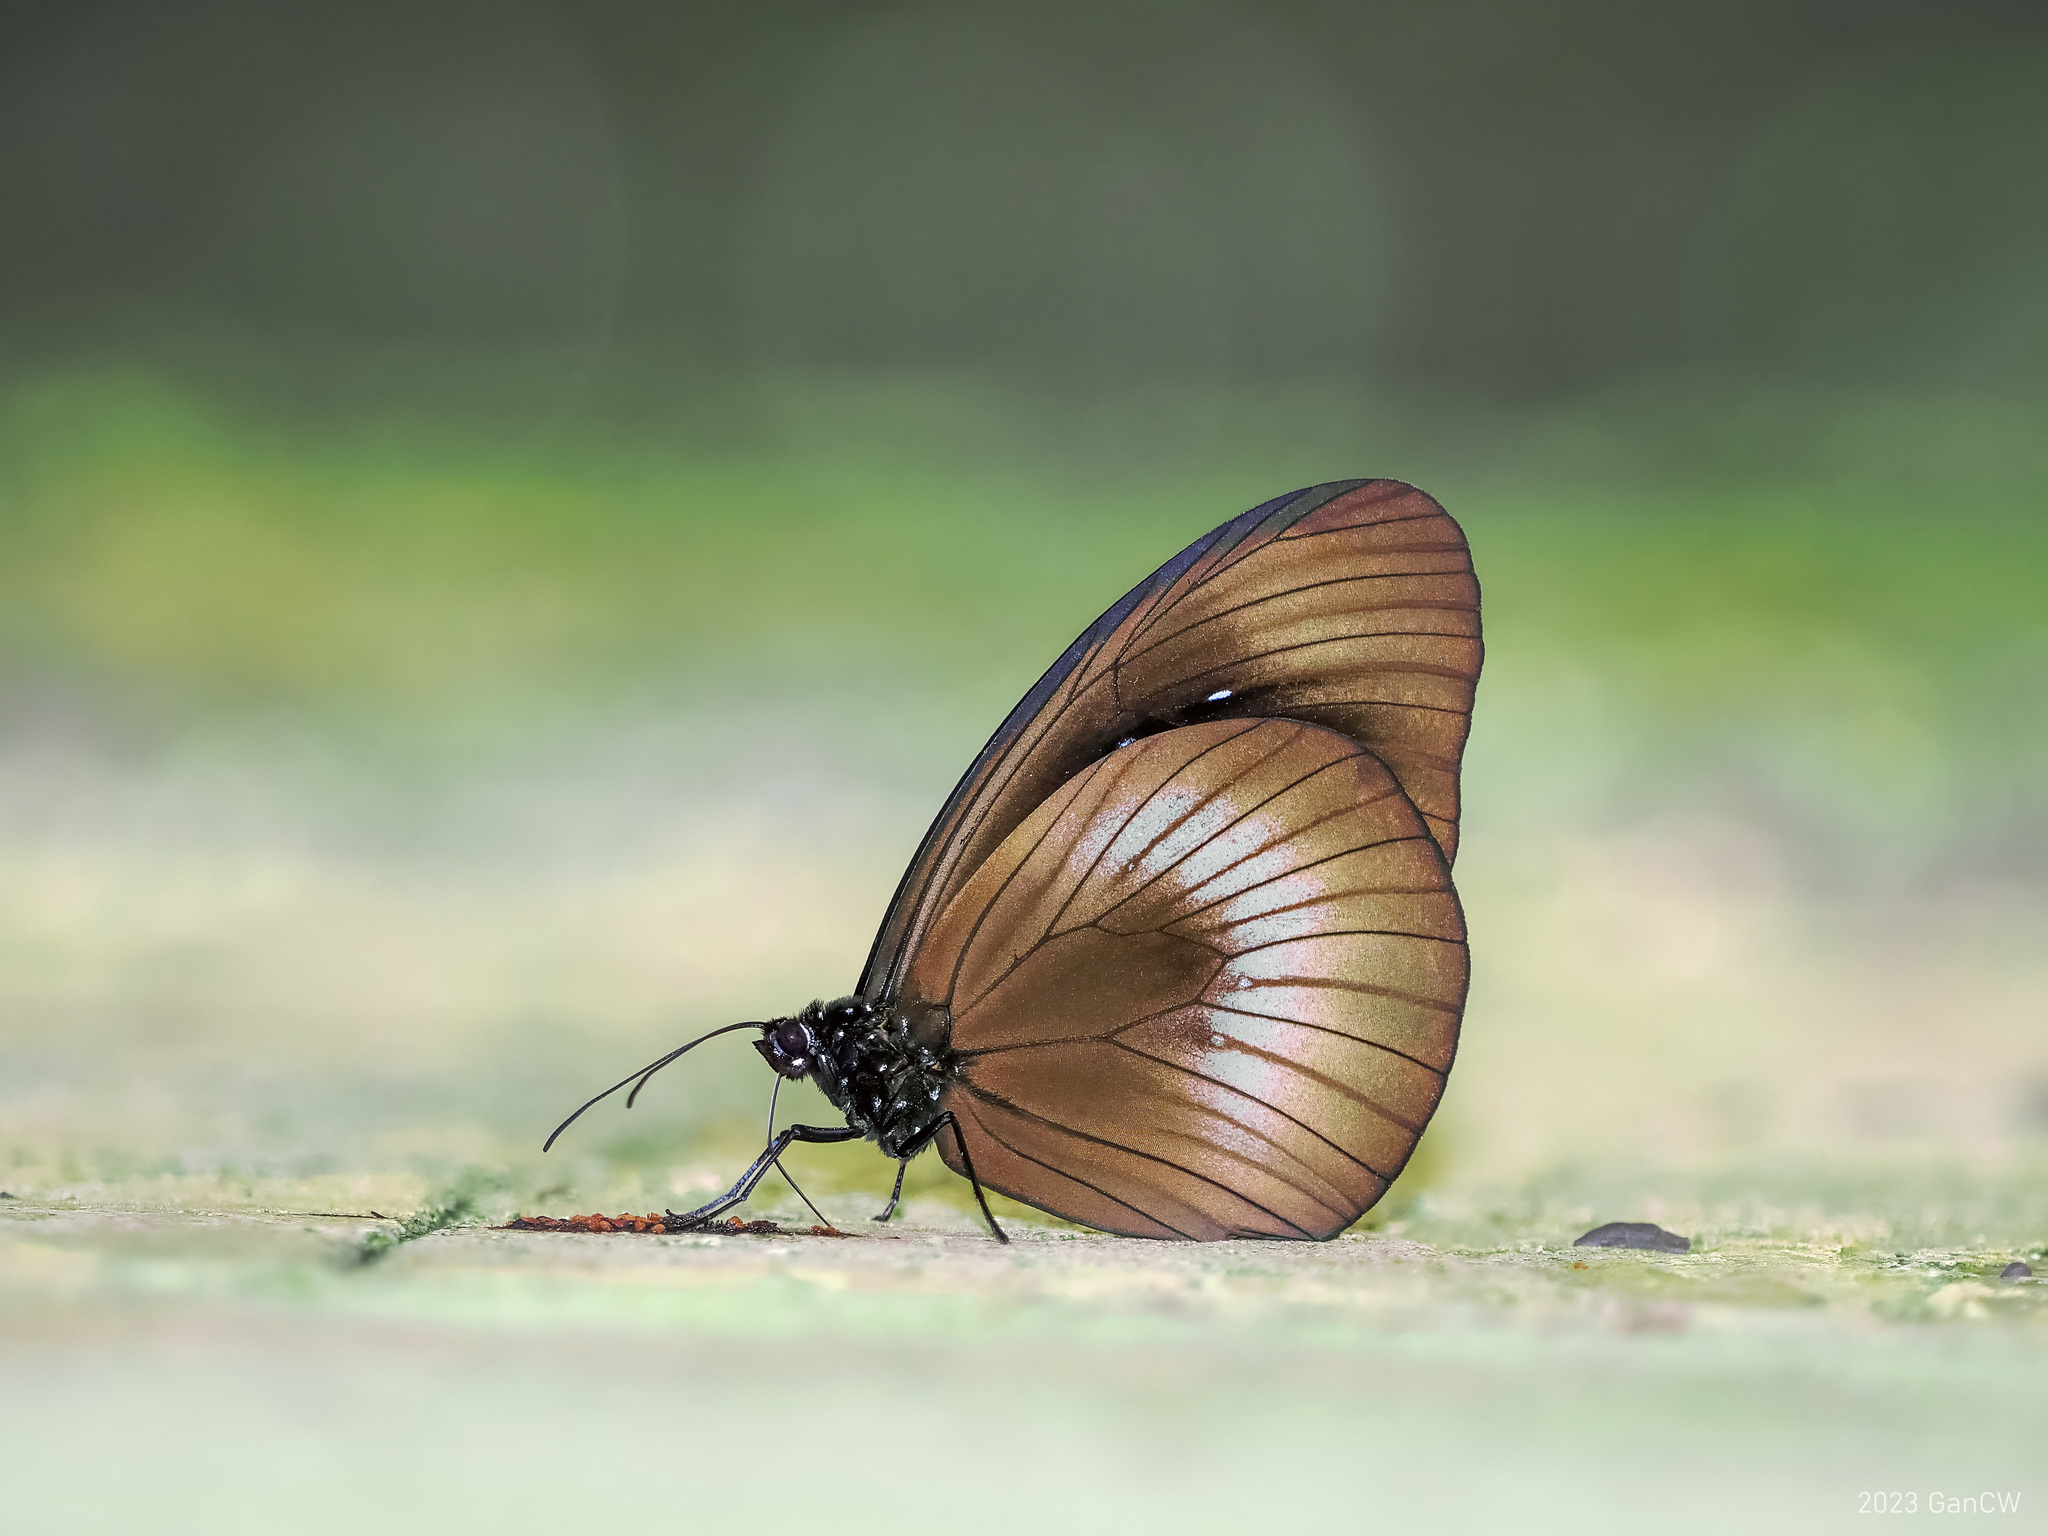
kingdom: Animalia
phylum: Arthropoda
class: Insecta
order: Lepidoptera
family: Nymphalidae
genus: Euploea
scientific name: Euploea magou
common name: Magou
